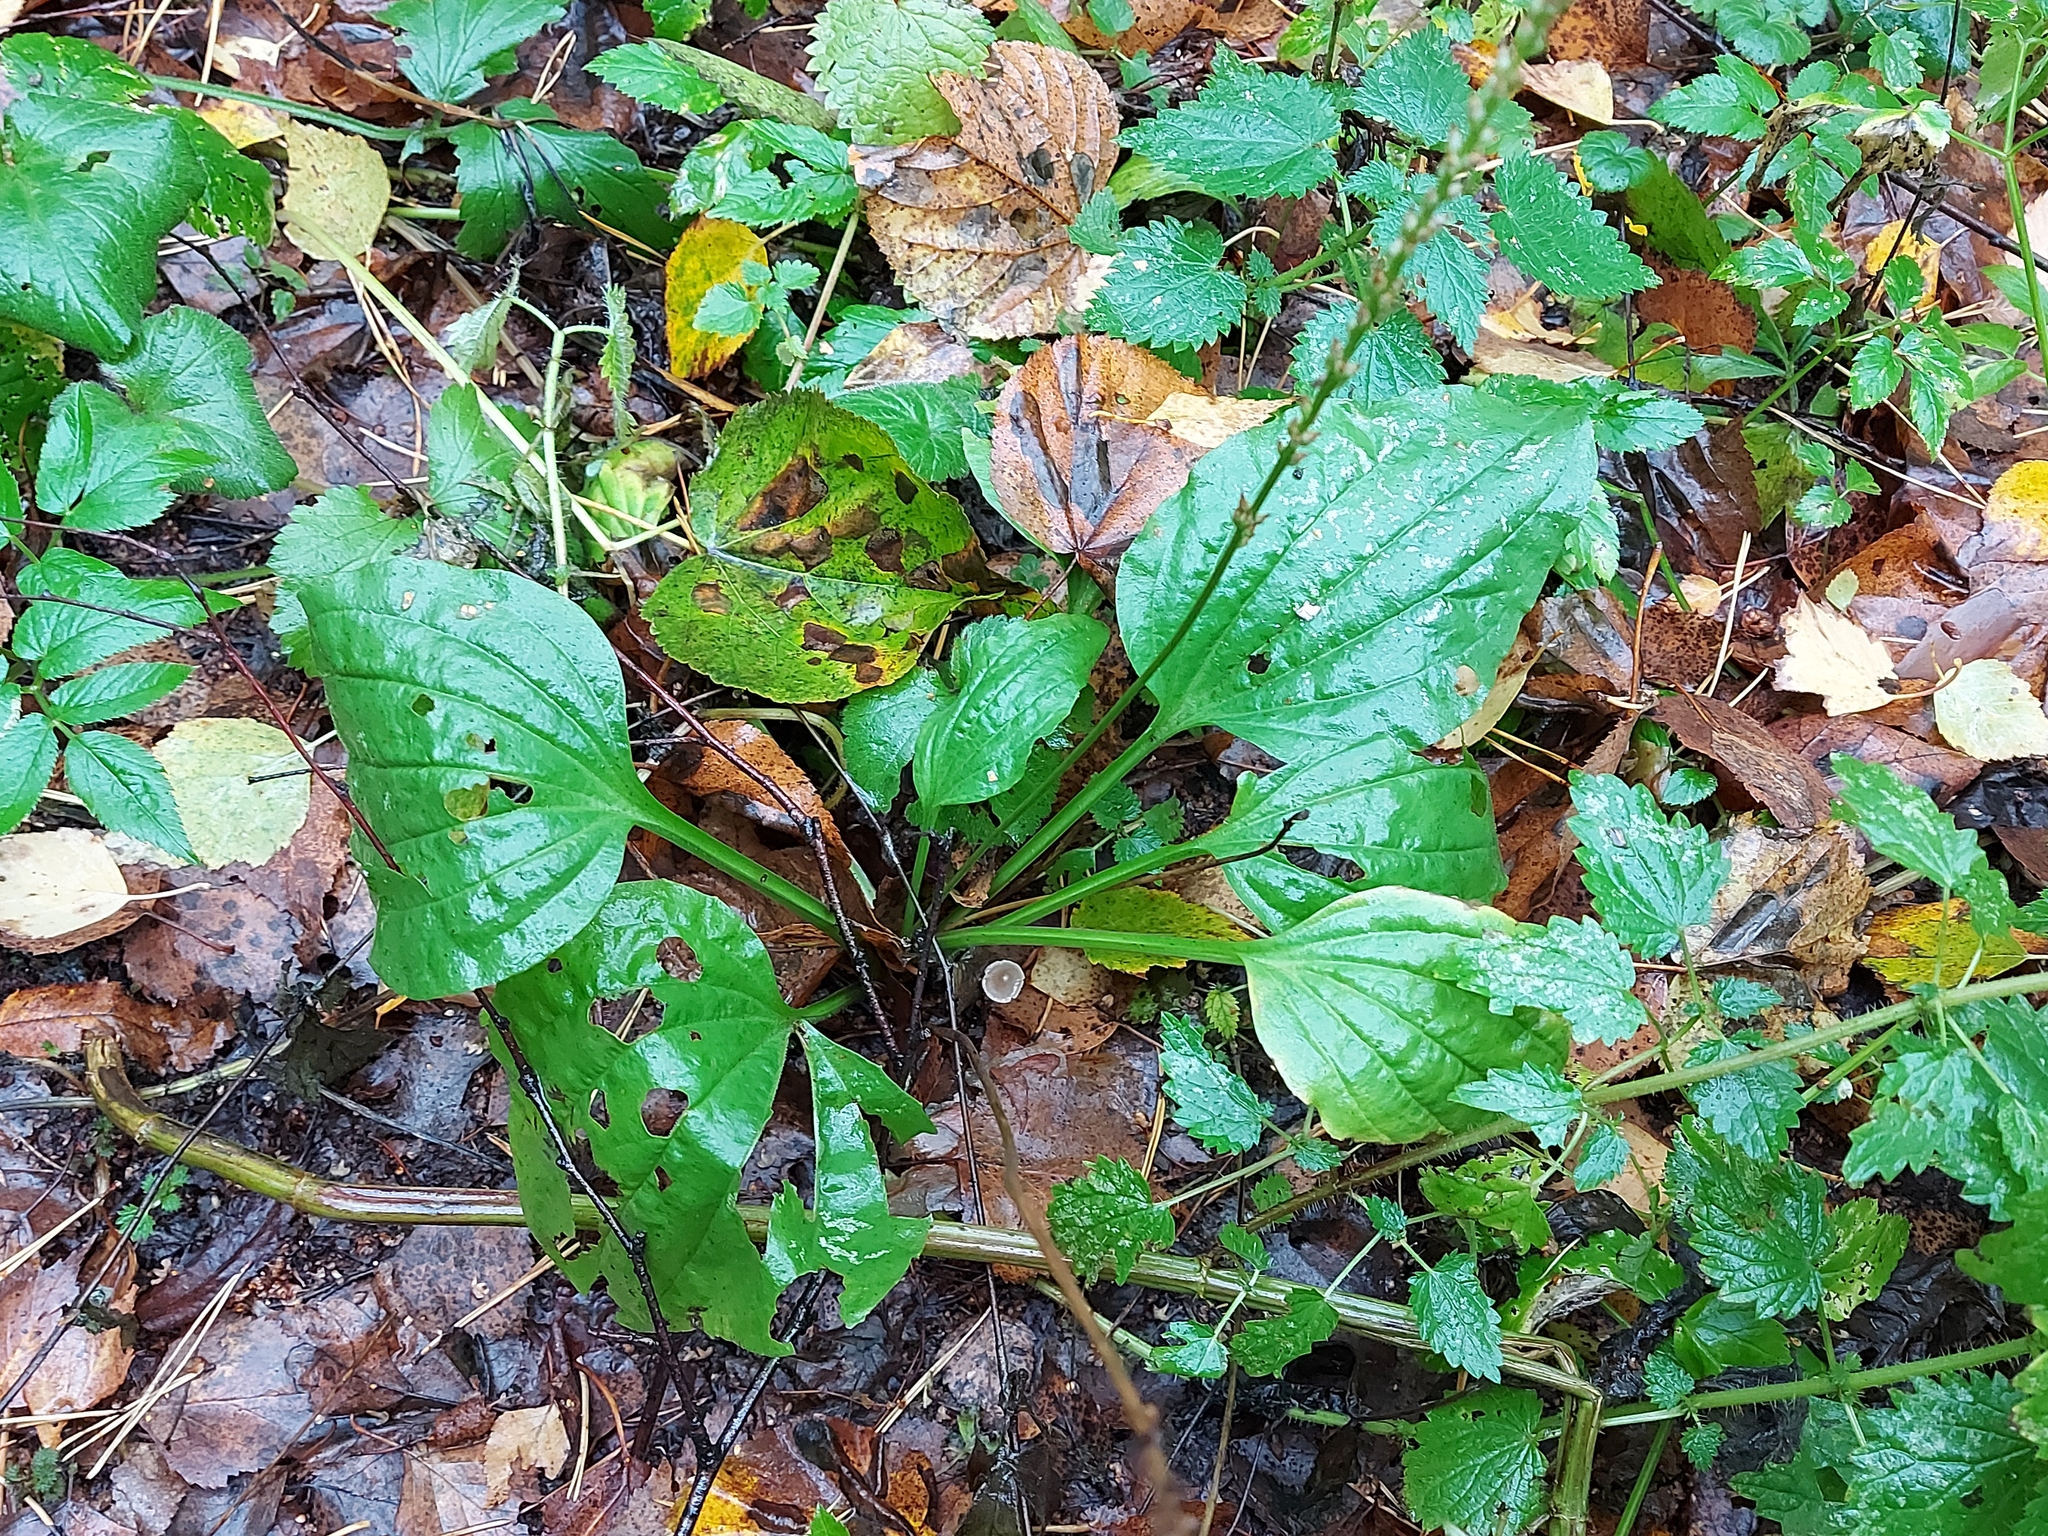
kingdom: Plantae
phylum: Tracheophyta
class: Magnoliopsida
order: Lamiales
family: Plantaginaceae
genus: Plantago
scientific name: Plantago major
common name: Common plantain
